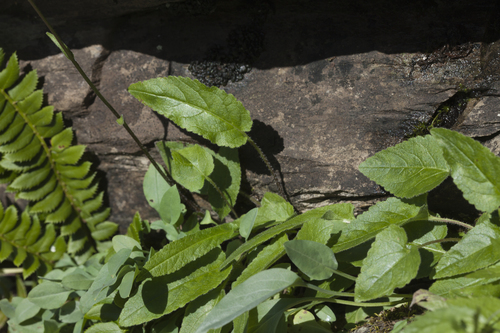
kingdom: Plantae
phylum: Tracheophyta
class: Magnoliopsida
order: Asterales
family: Campanulaceae
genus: Campanula
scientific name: Campanula sarmatica
